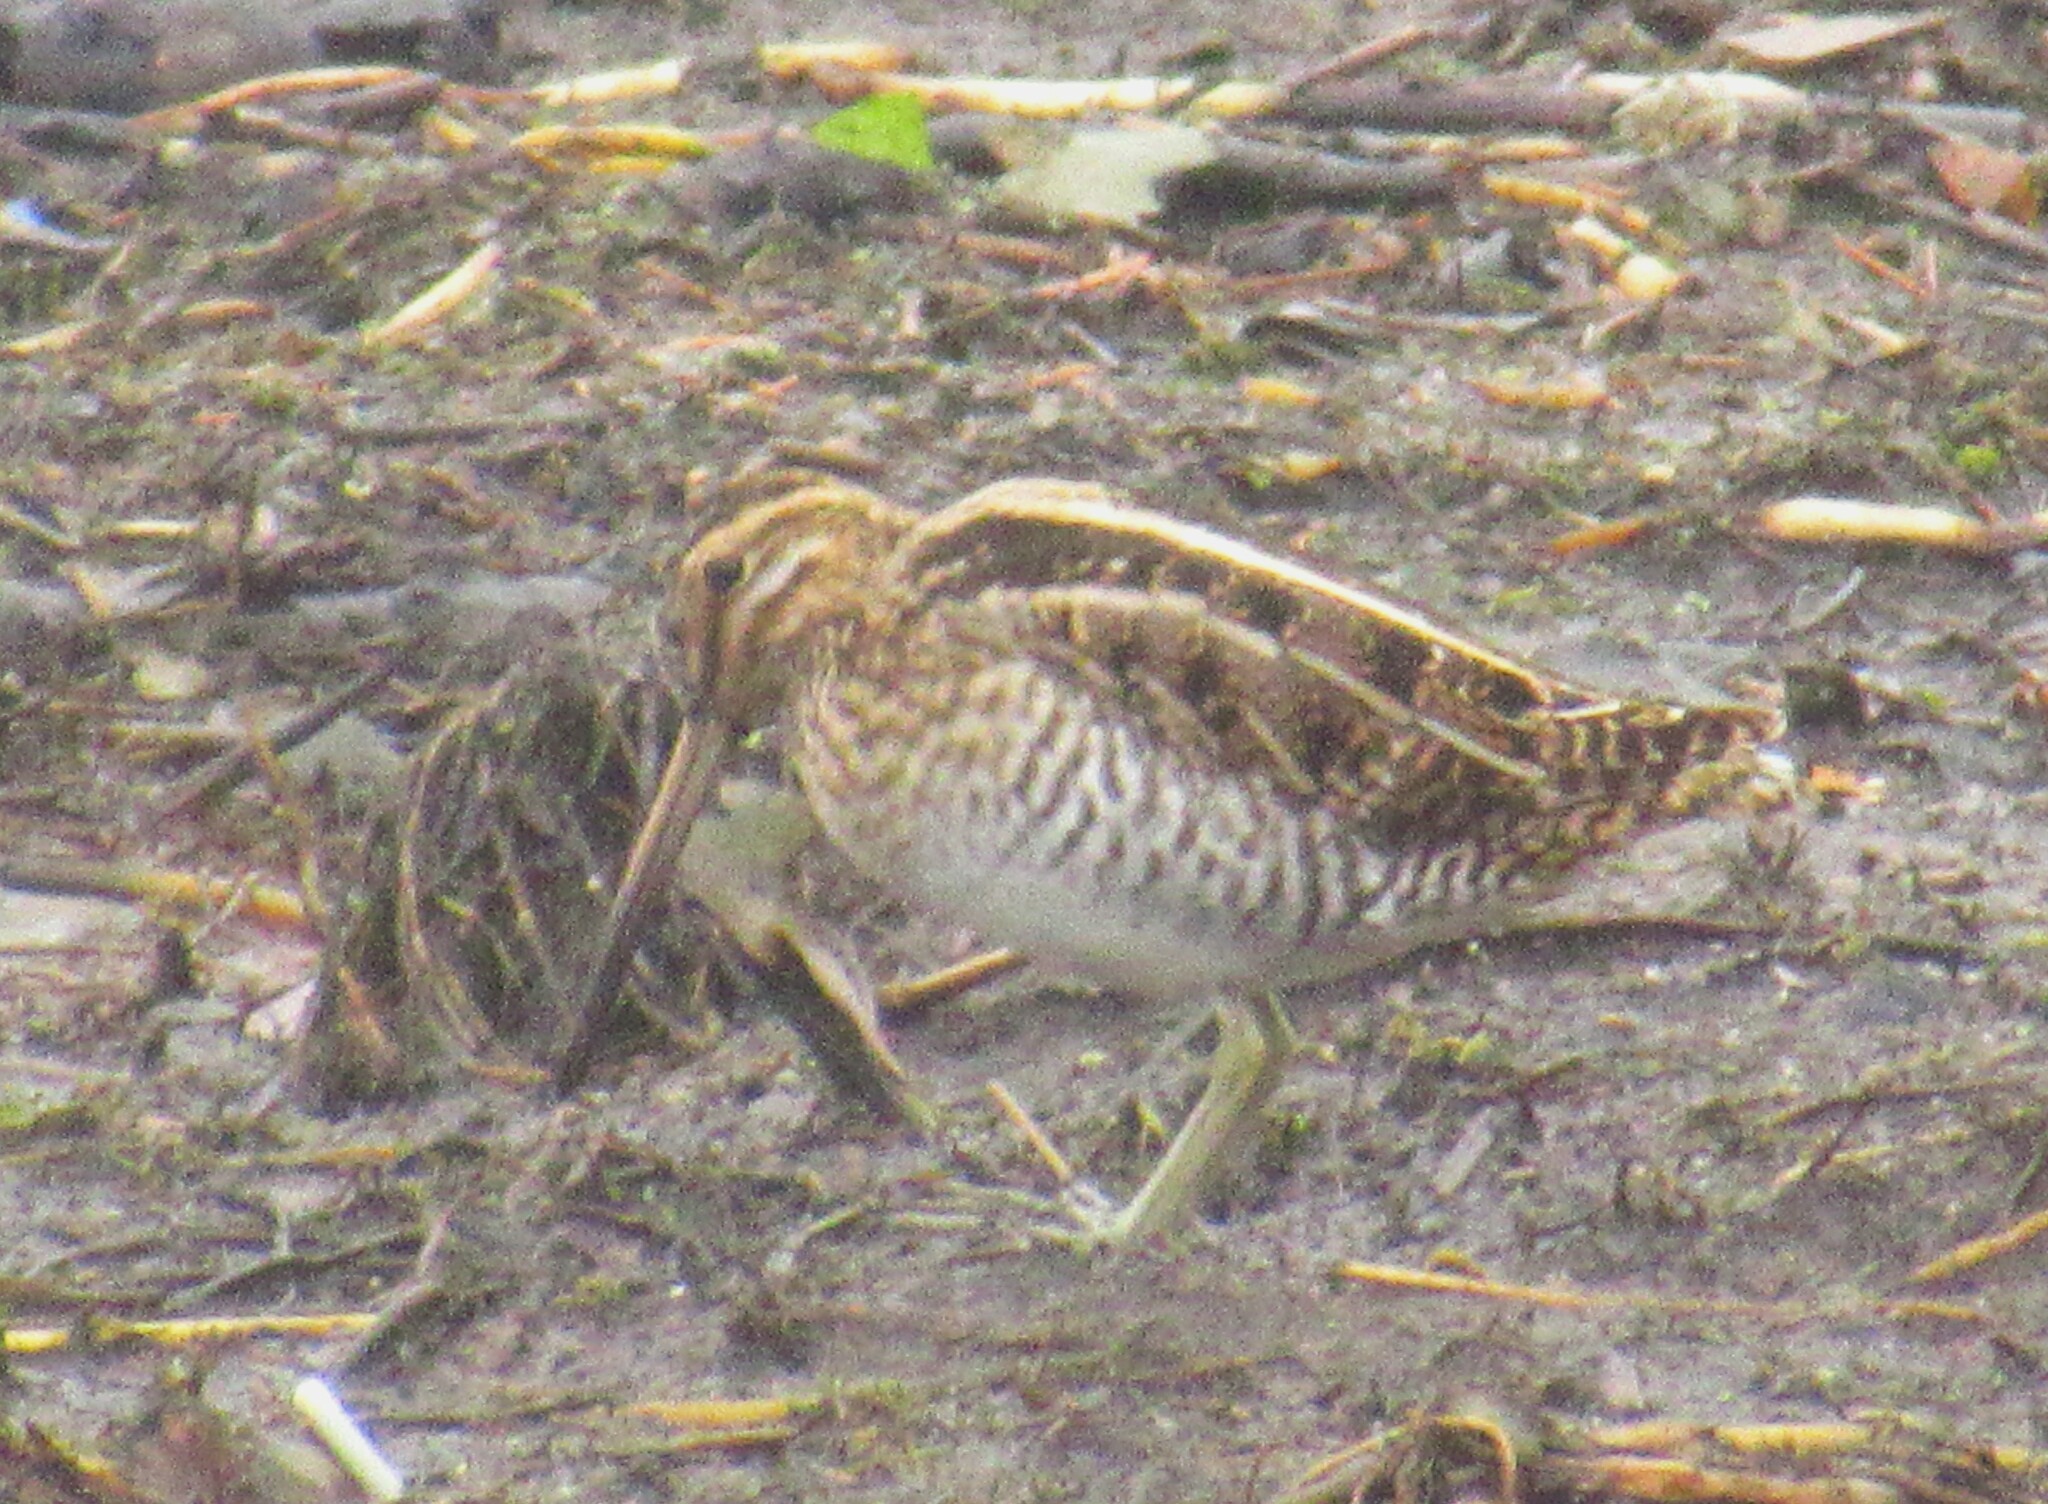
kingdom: Animalia
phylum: Chordata
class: Aves
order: Charadriiformes
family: Scolopacidae
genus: Gallinago
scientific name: Gallinago delicata
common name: Wilson's snipe
